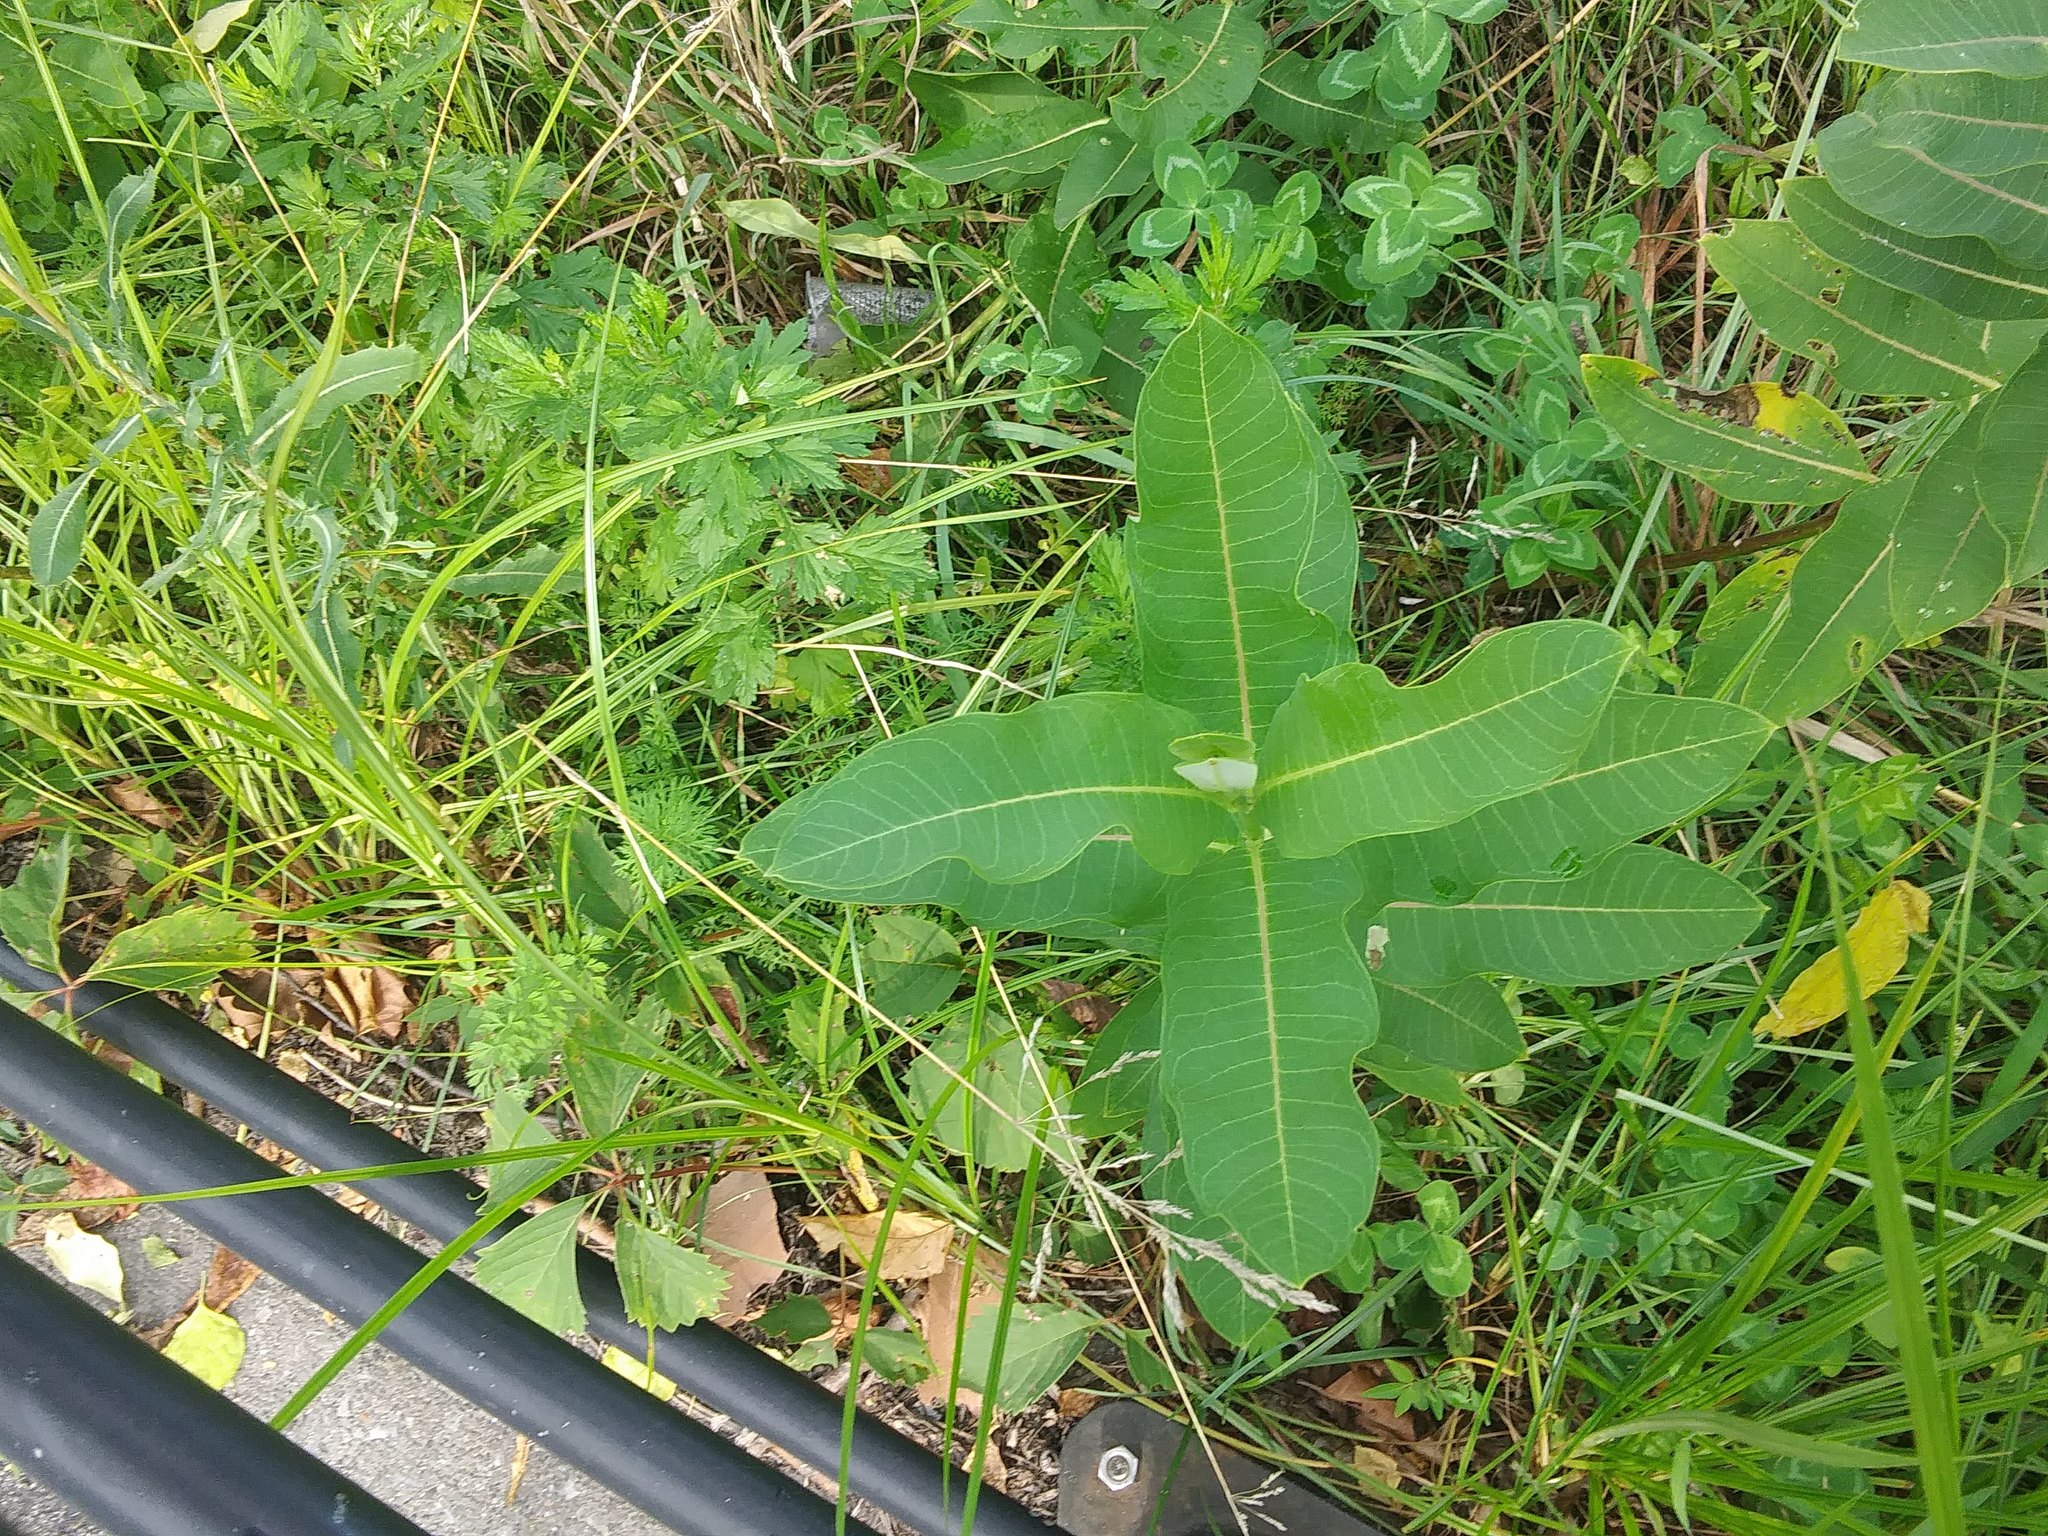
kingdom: Plantae
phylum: Tracheophyta
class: Magnoliopsida
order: Gentianales
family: Apocynaceae
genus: Asclepias
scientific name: Asclepias syriaca
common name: Common milkweed
